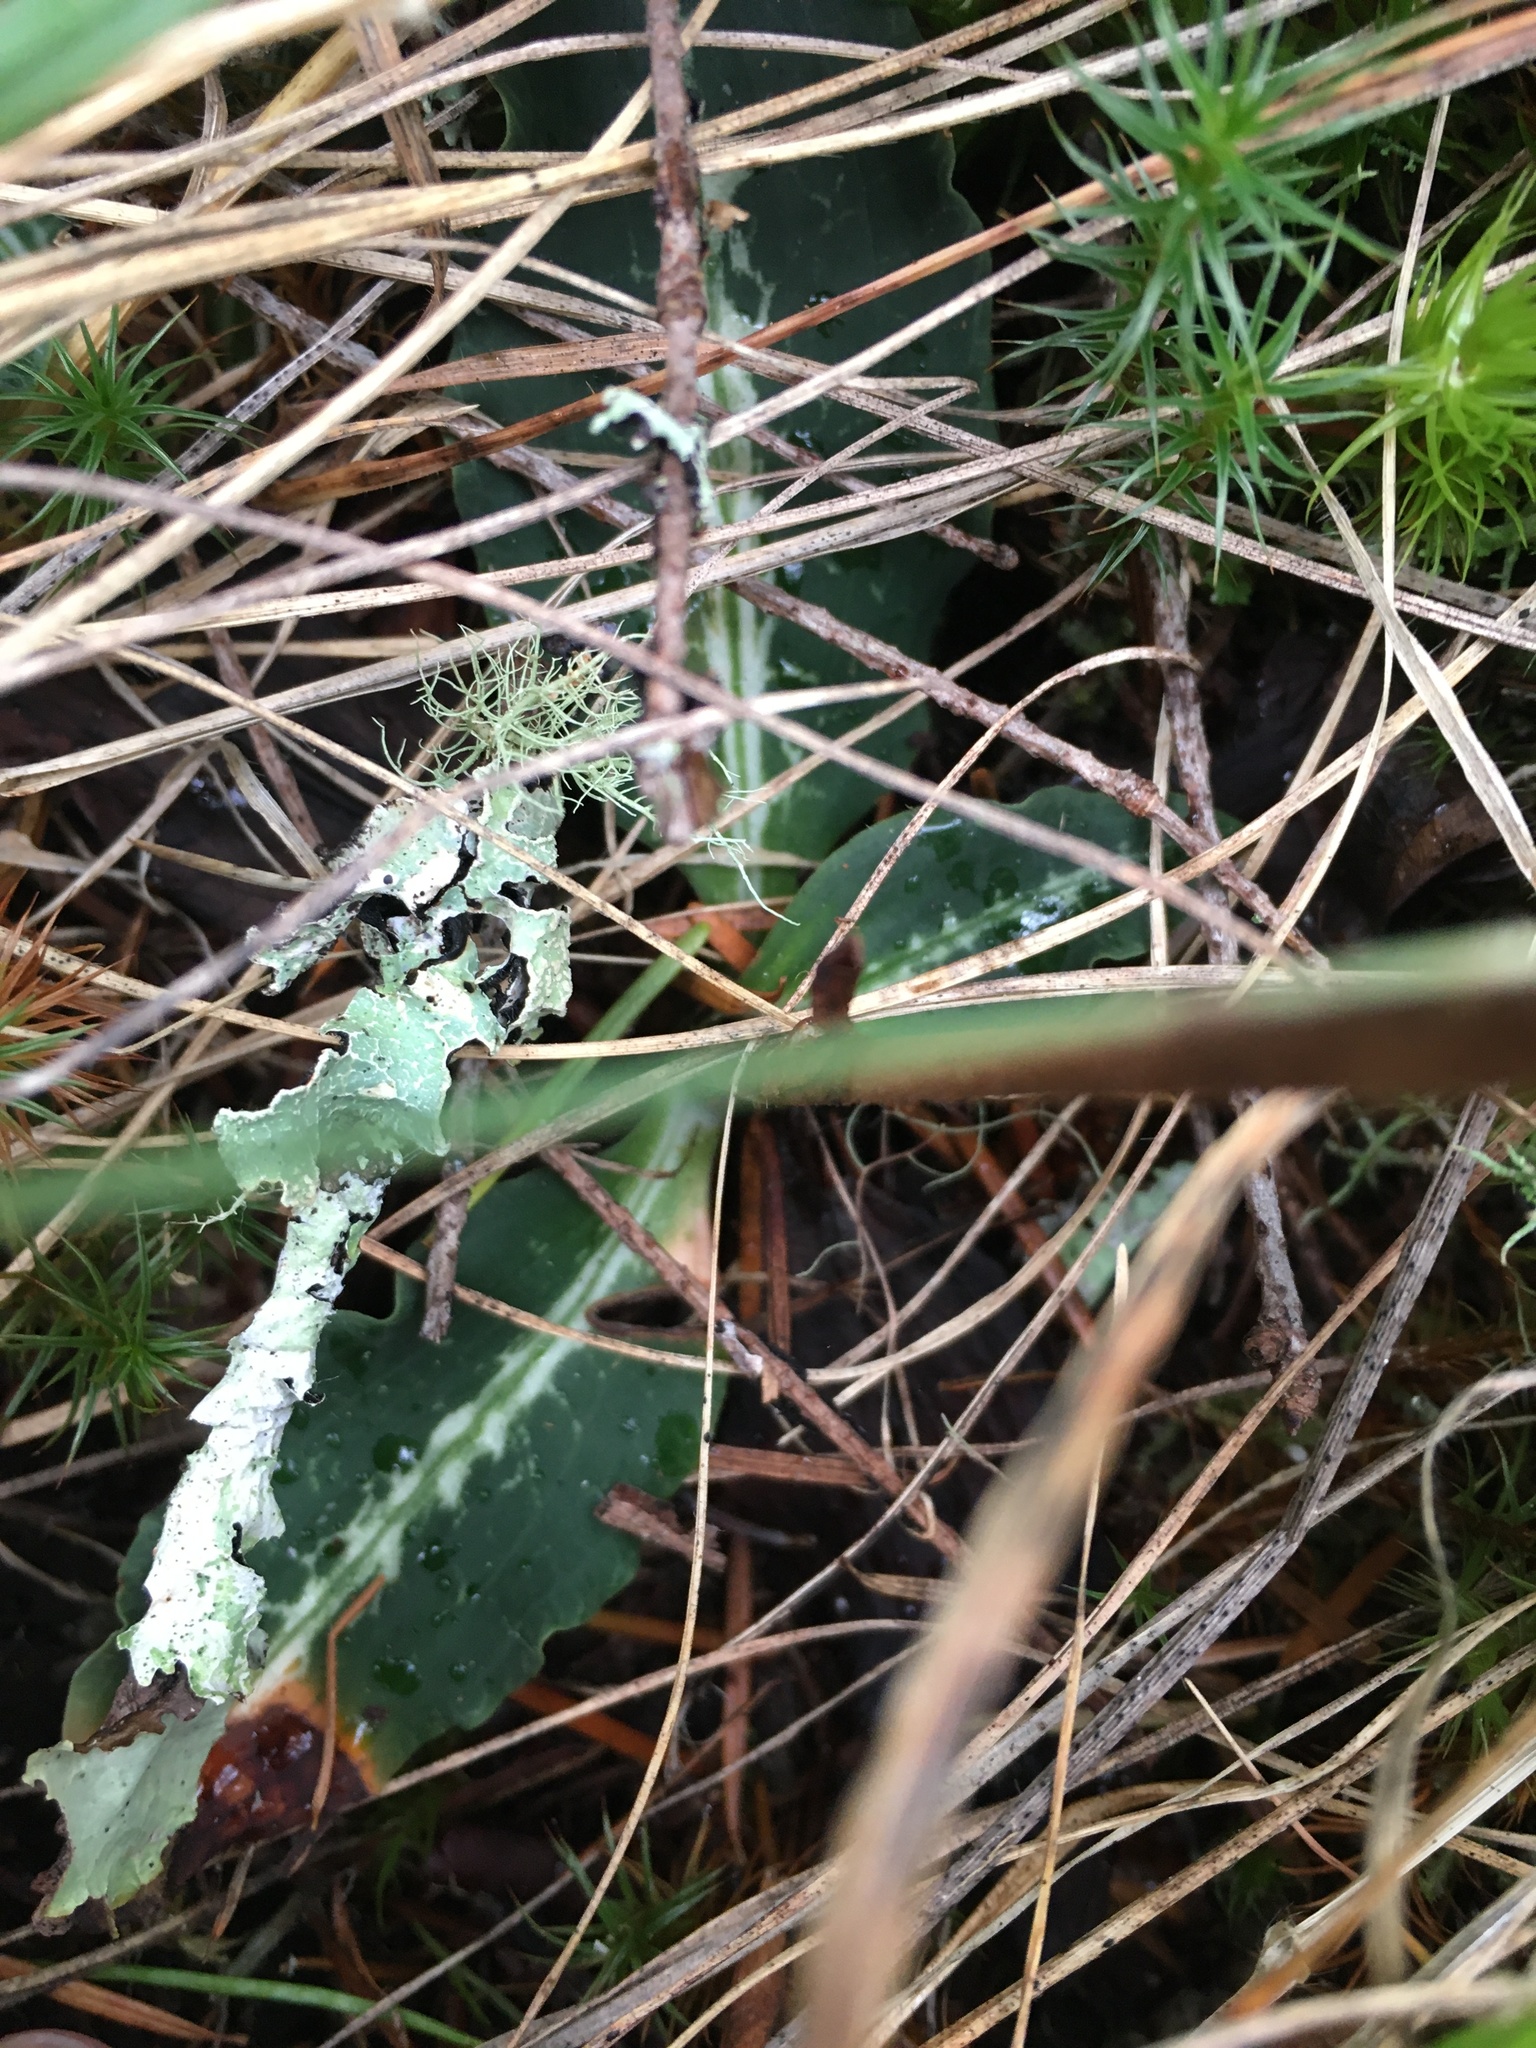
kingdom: Plantae
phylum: Tracheophyta
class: Liliopsida
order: Asparagales
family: Orchidaceae
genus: Goodyera
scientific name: Goodyera oblongifolia
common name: Giant rattlesnake-plantain
